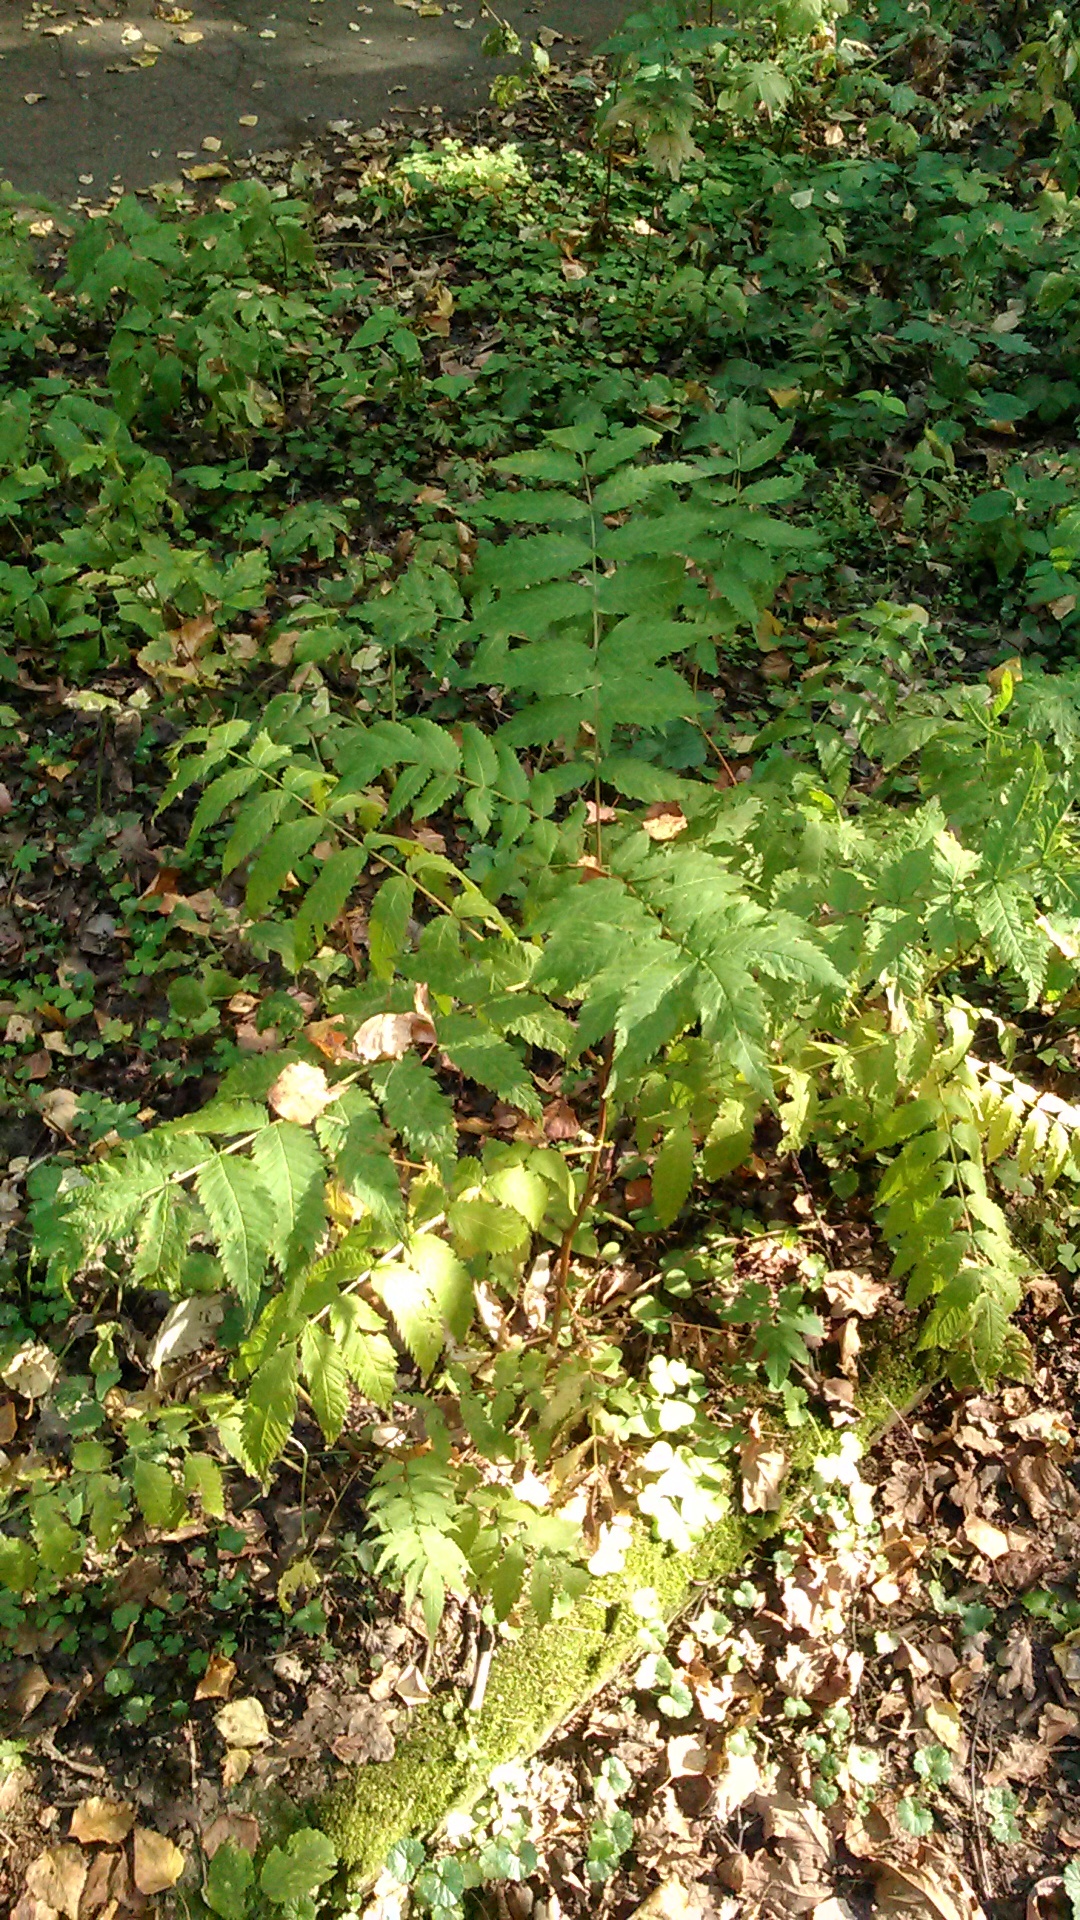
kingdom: Plantae
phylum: Tracheophyta
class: Magnoliopsida
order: Rosales
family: Rosaceae
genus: Sorbaria
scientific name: Sorbaria sorbifolia
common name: False spiraea
